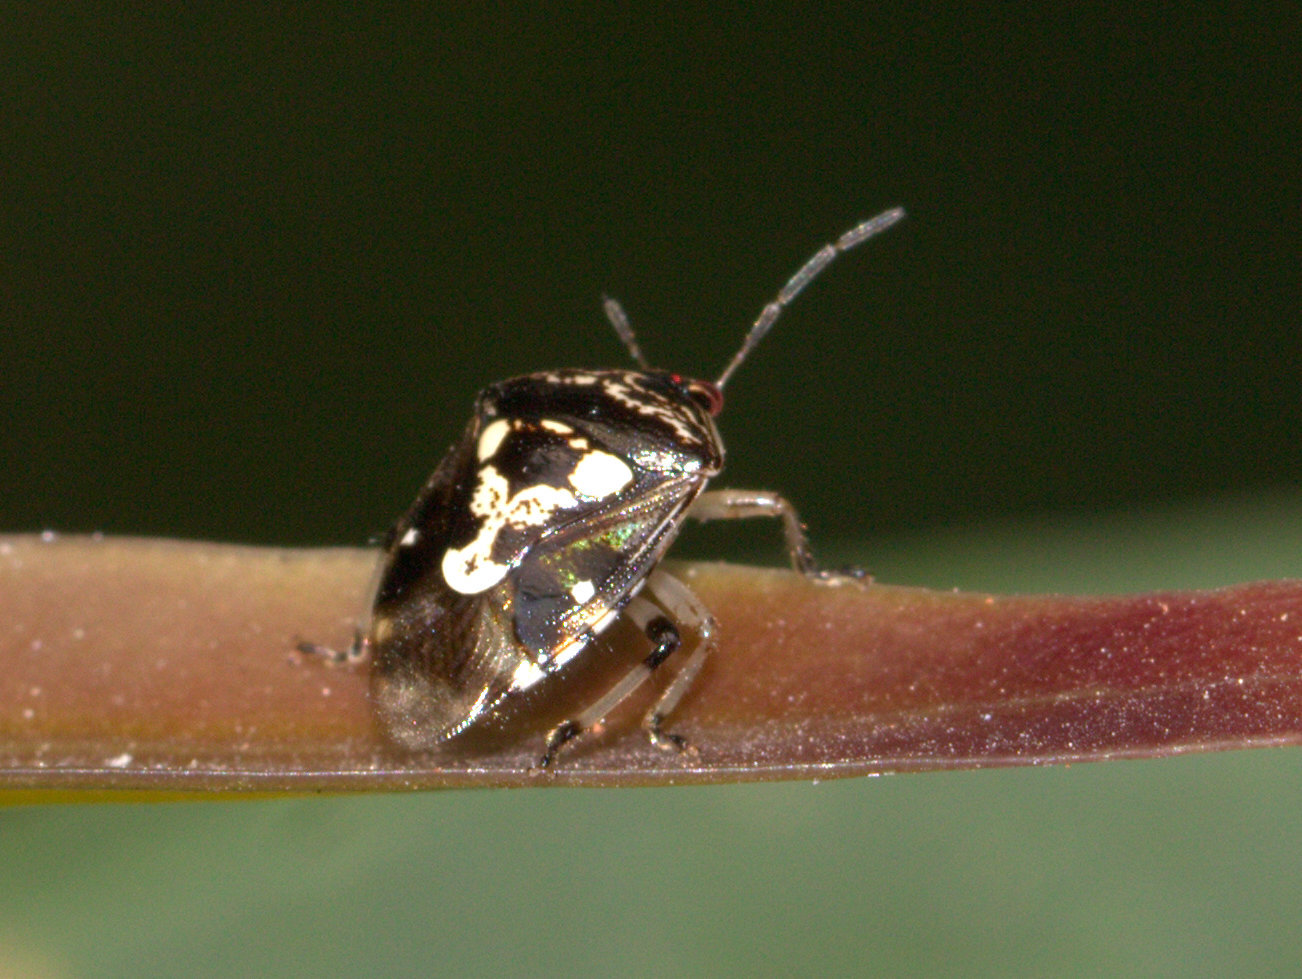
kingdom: Animalia
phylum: Arthropoda
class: Insecta
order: Hemiptera
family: Pentatomidae
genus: Menida
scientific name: Menida formosa
